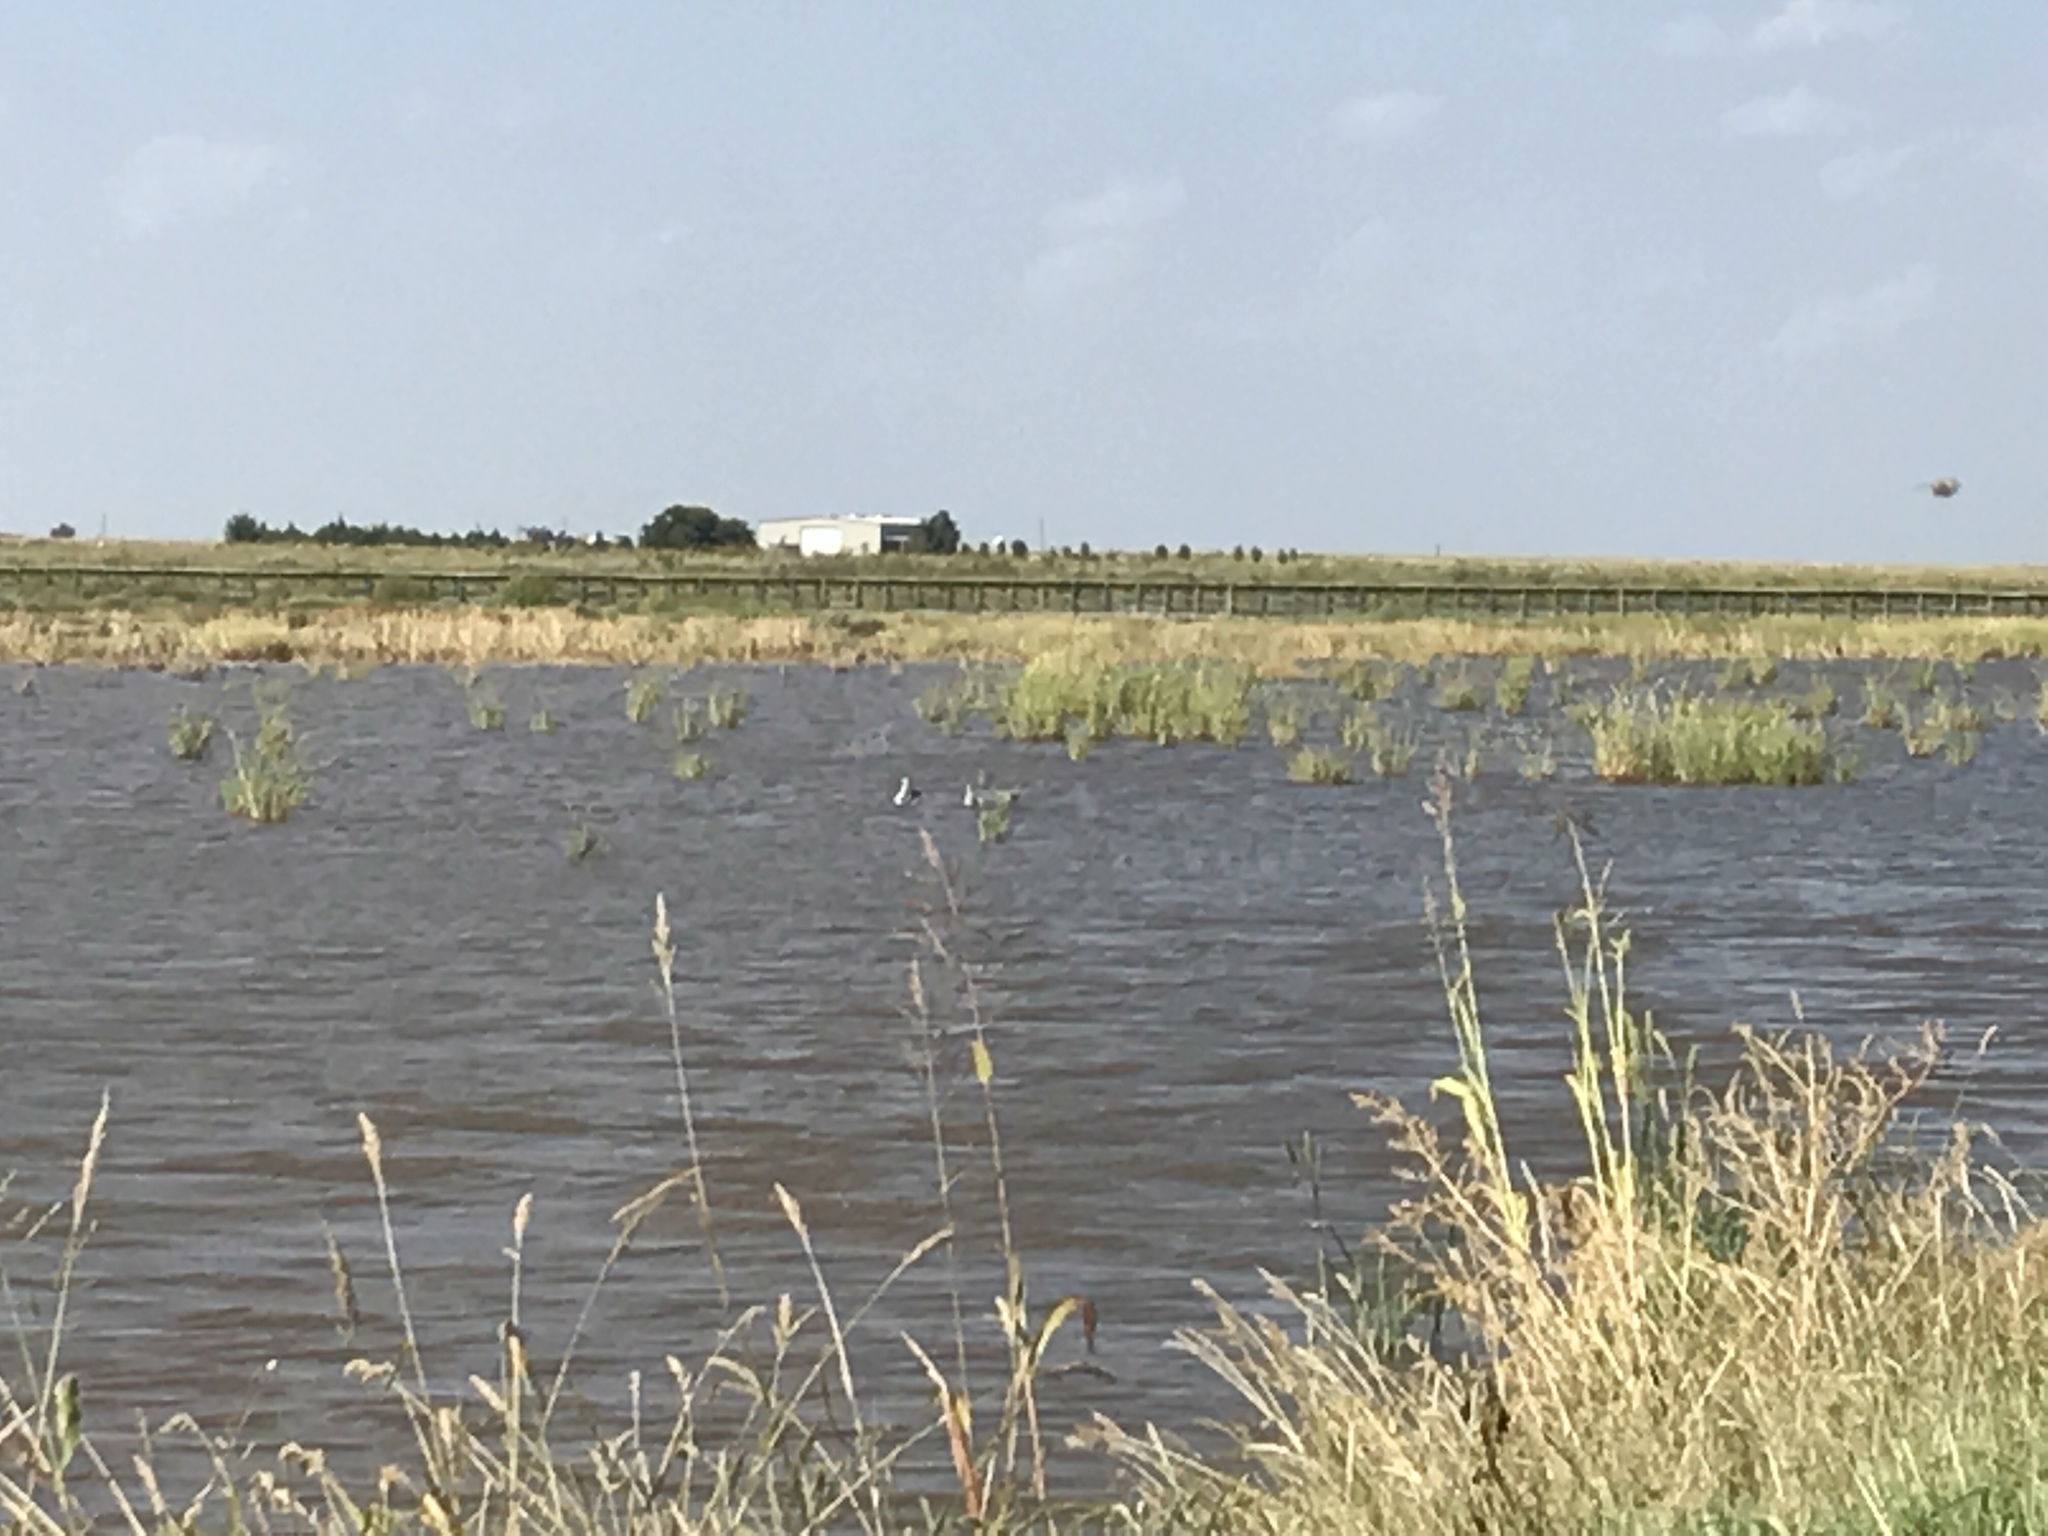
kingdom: Animalia
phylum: Chordata
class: Aves
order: Charadriiformes
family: Recurvirostridae
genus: Recurvirostra
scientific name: Recurvirostra americana
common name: American avocet
